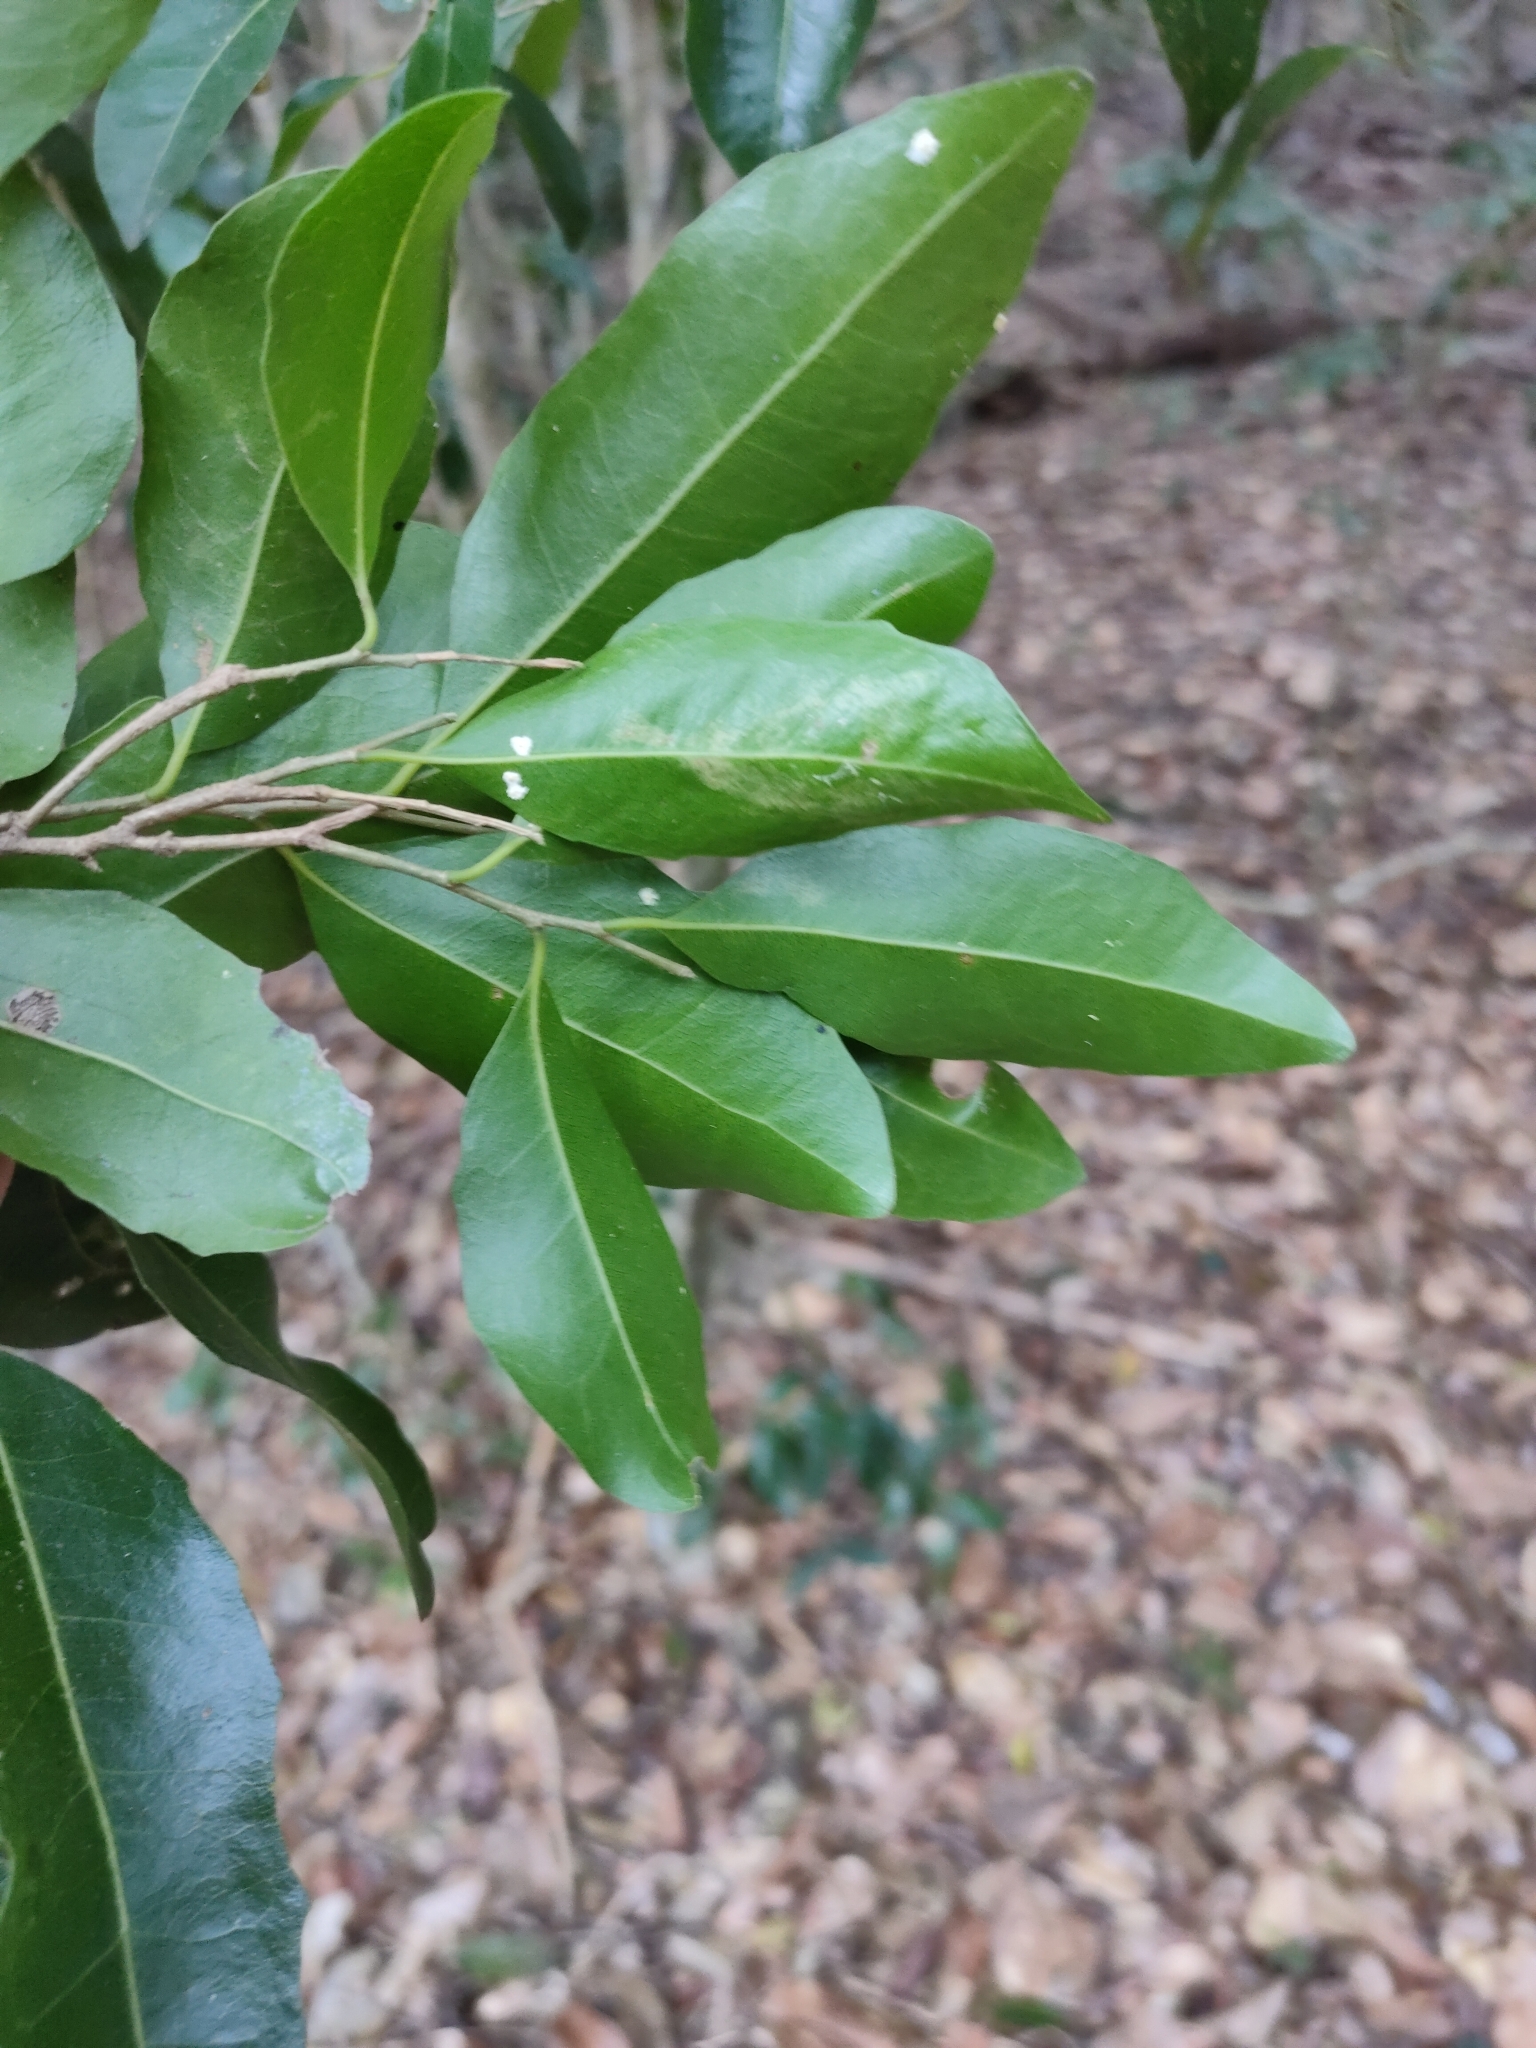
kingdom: Plantae
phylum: Tracheophyta
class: Magnoliopsida
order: Malpighiales
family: Putranjivaceae
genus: Drypetes
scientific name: Drypetes deplanchei
